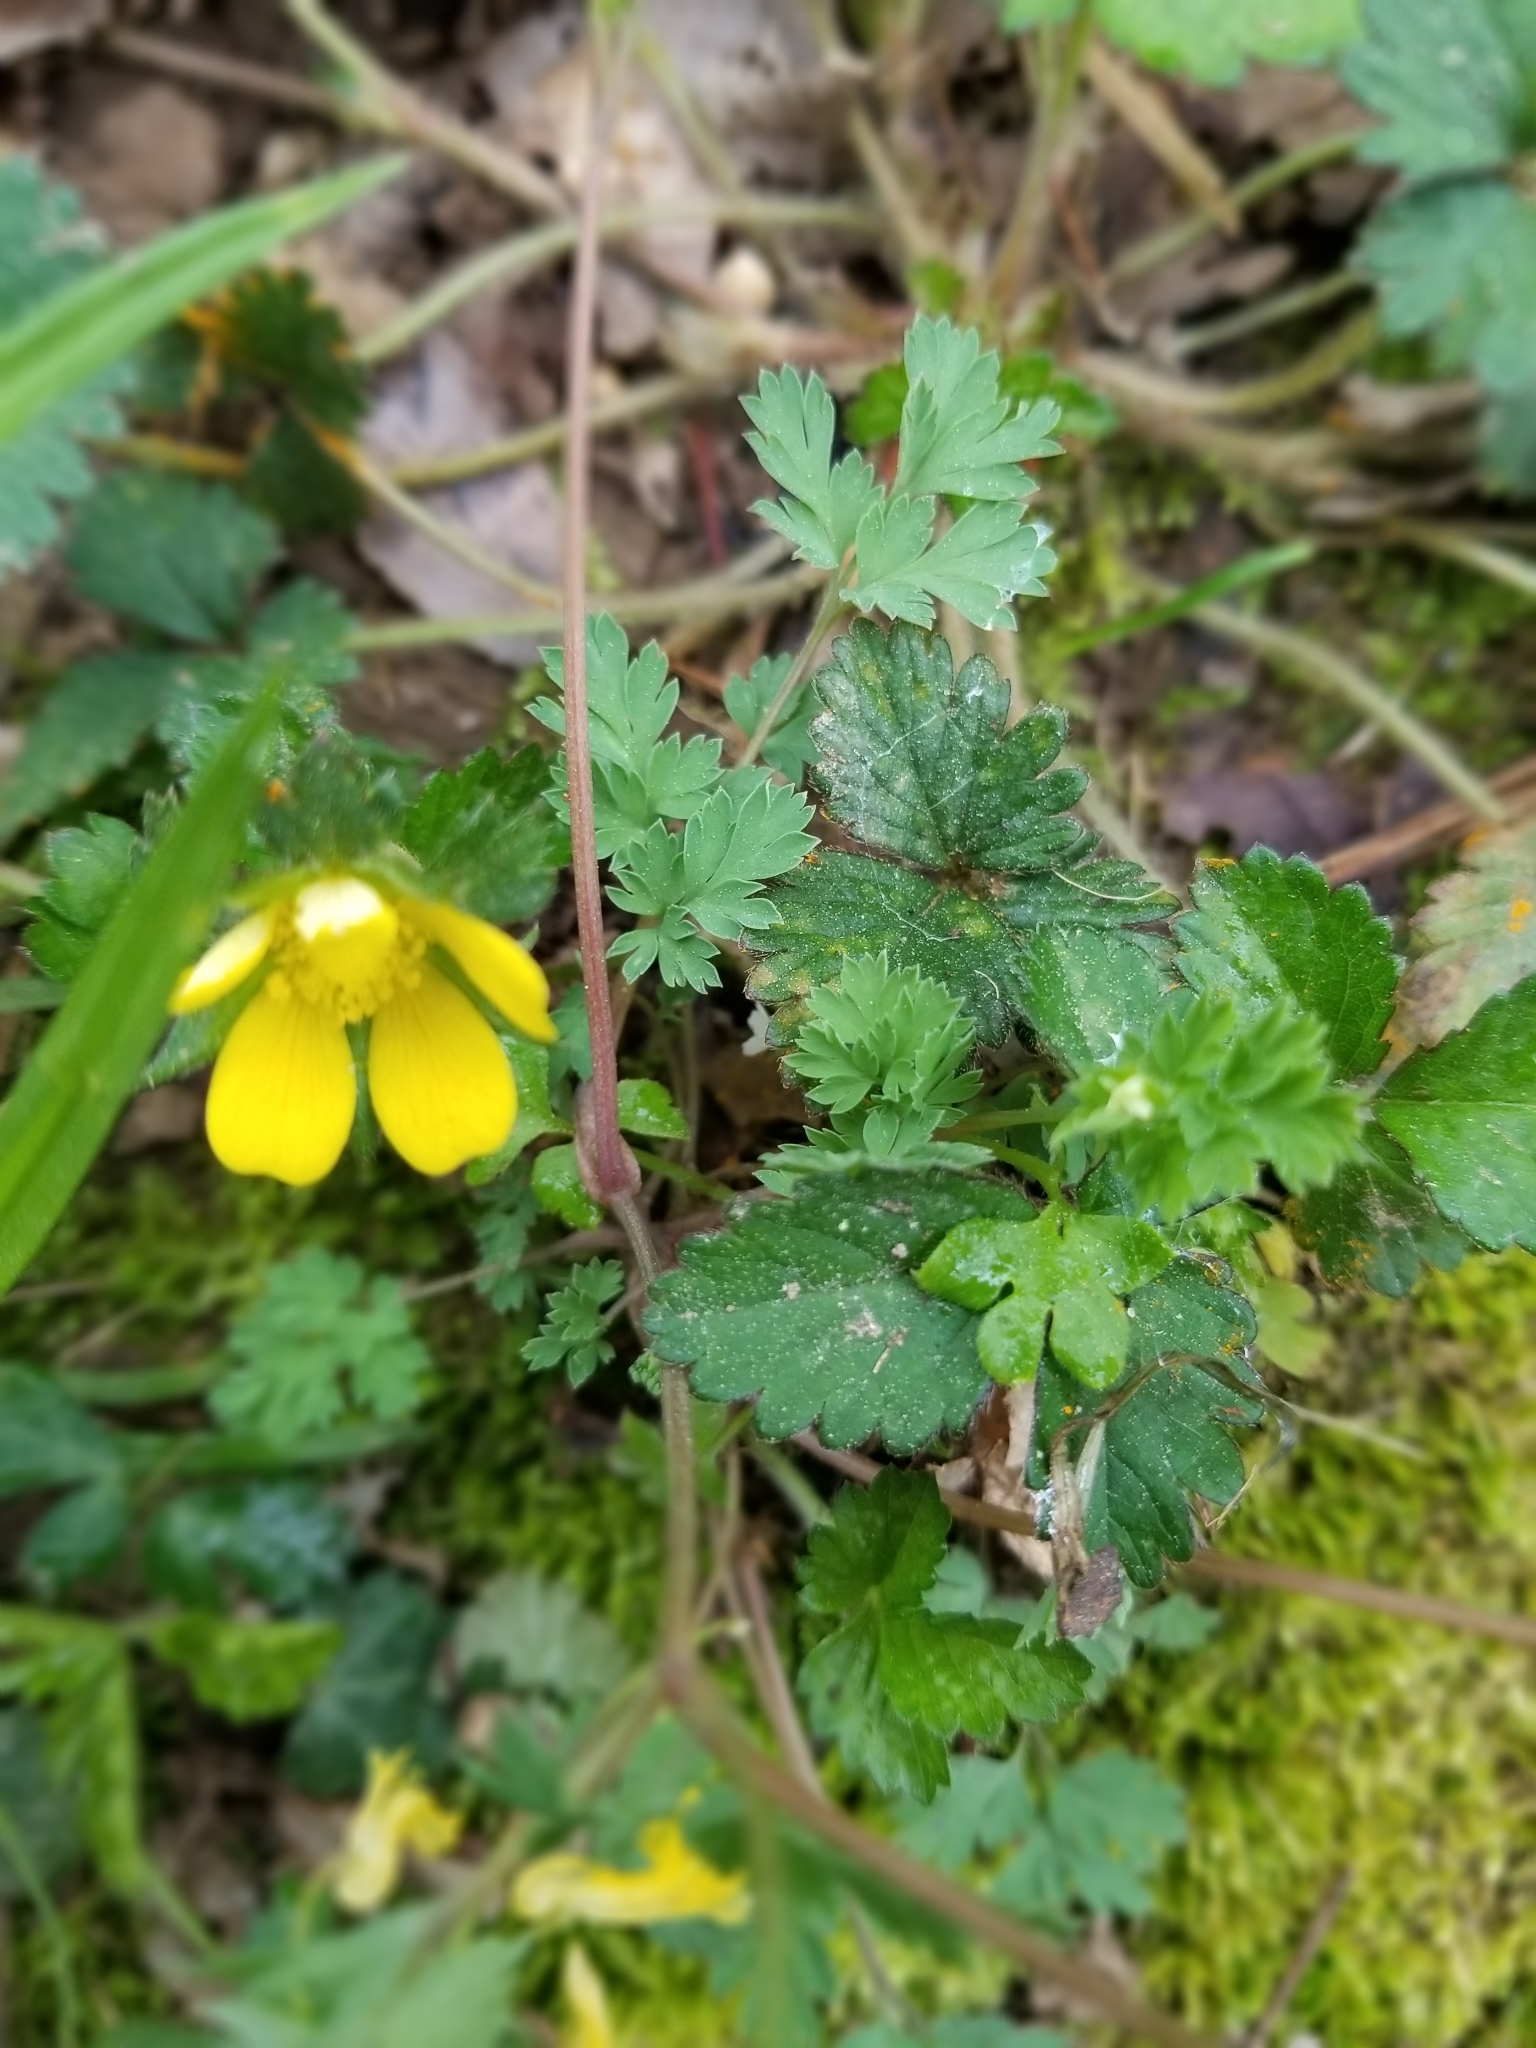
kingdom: Plantae
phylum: Tracheophyta
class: Magnoliopsida
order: Rosales
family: Rosaceae
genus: Potentilla
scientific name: Potentilla indica
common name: Yellow-flowered strawberry
